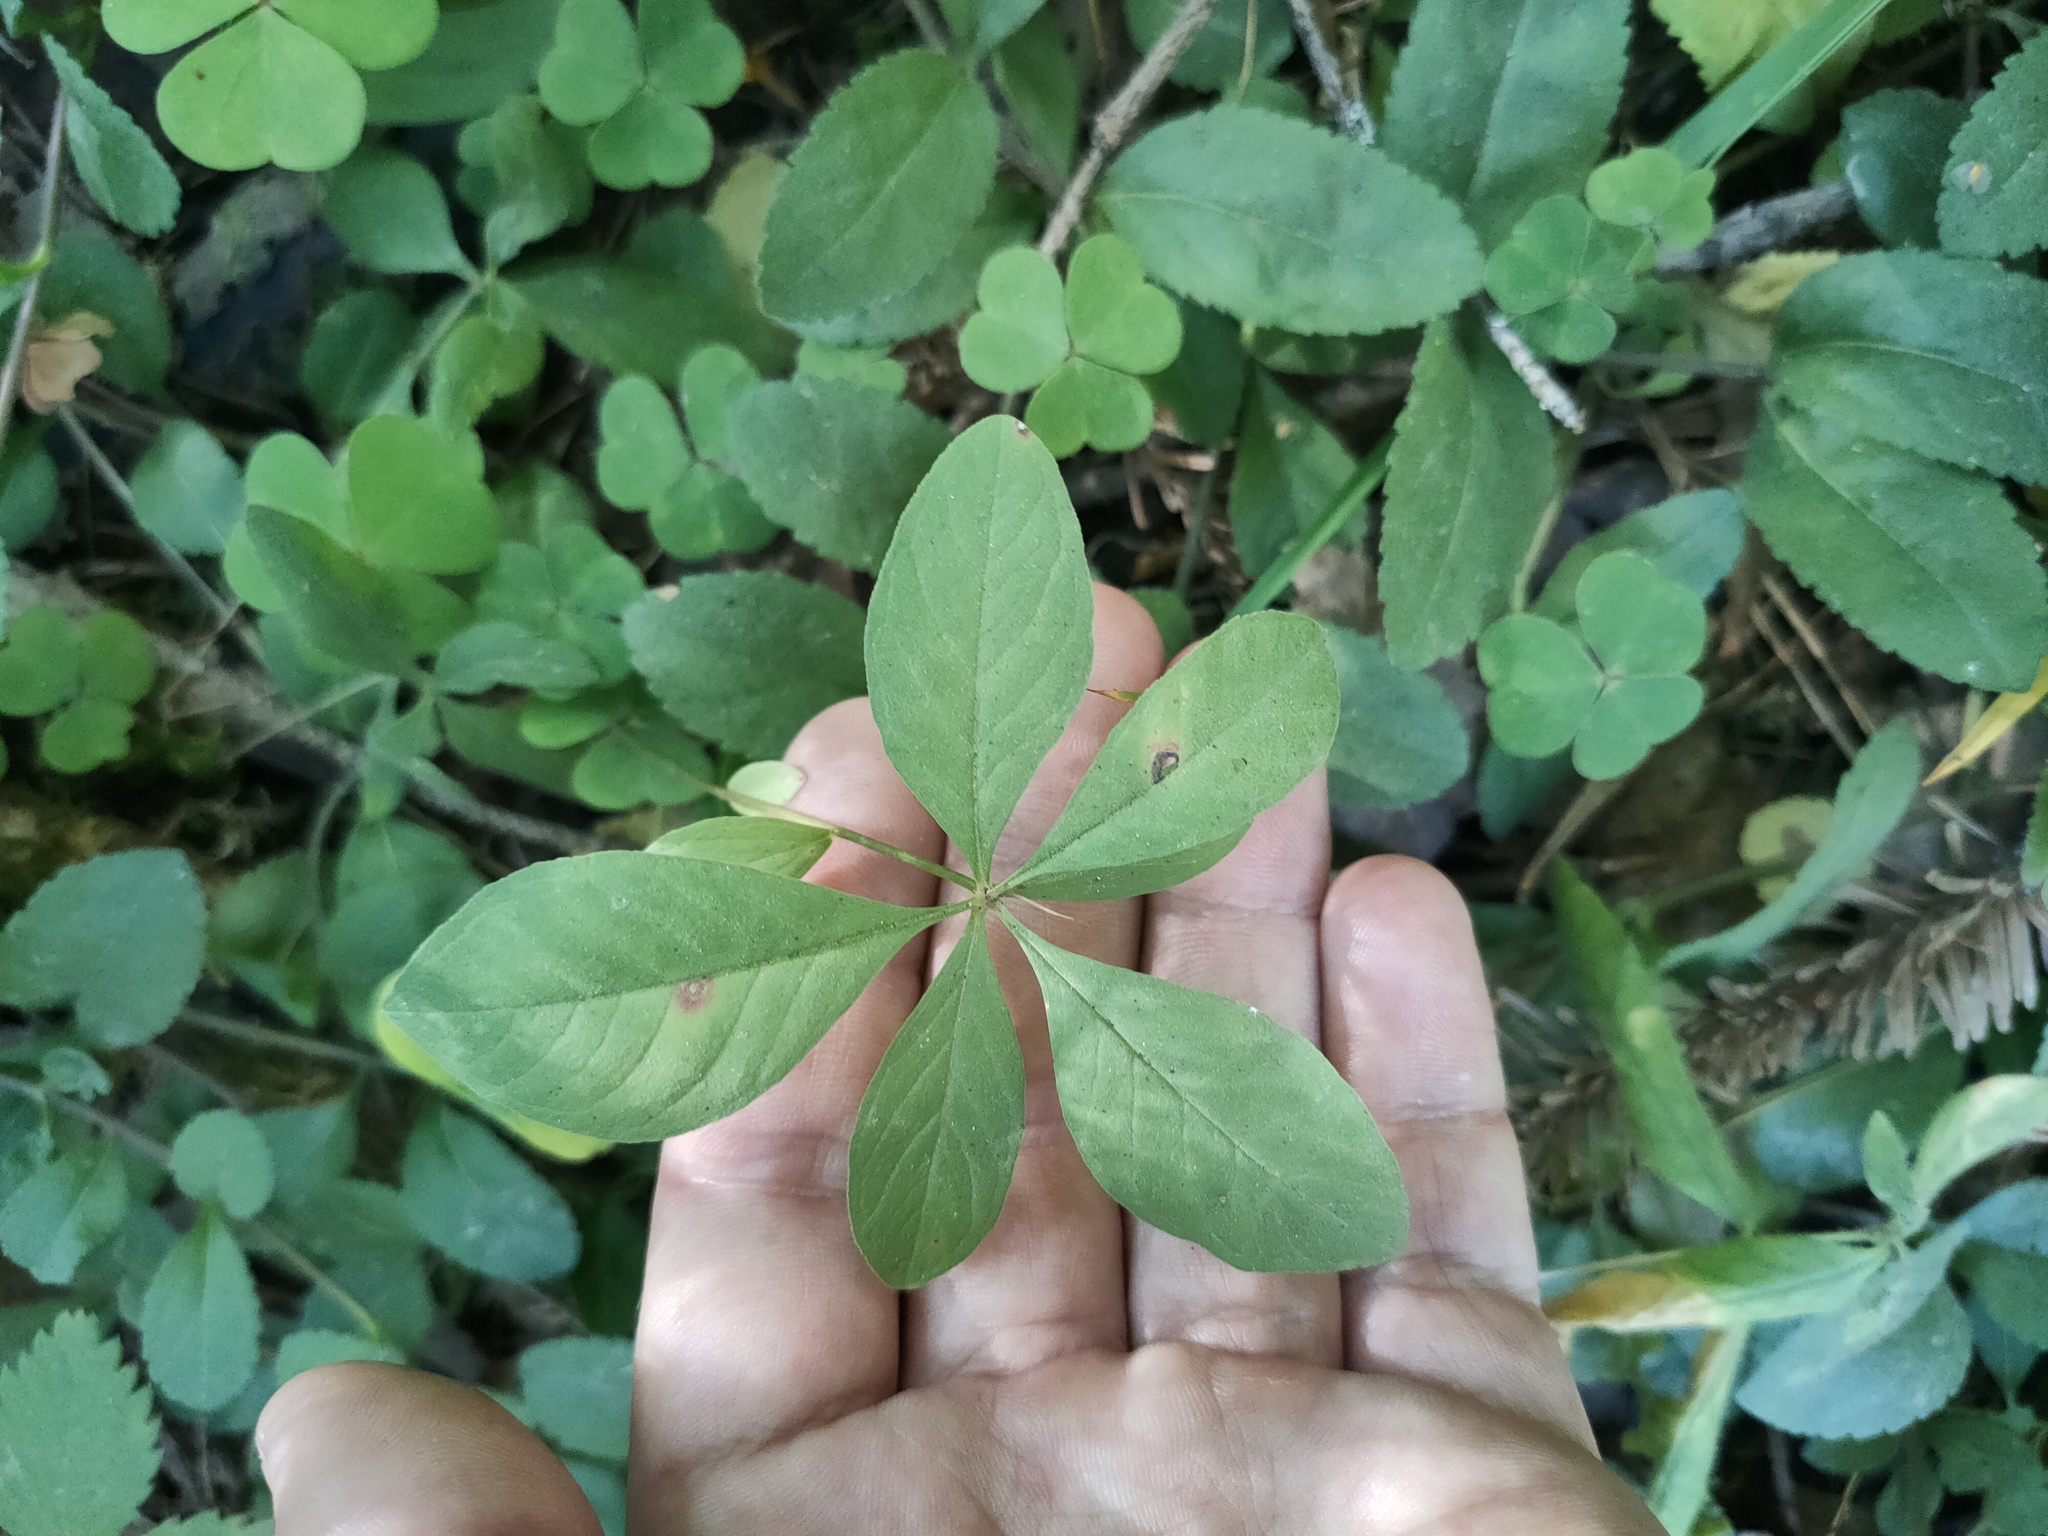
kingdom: Plantae
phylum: Tracheophyta
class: Magnoliopsida
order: Ericales
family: Primulaceae
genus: Lysimachia
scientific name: Lysimachia europaea
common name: Arctic starflower
